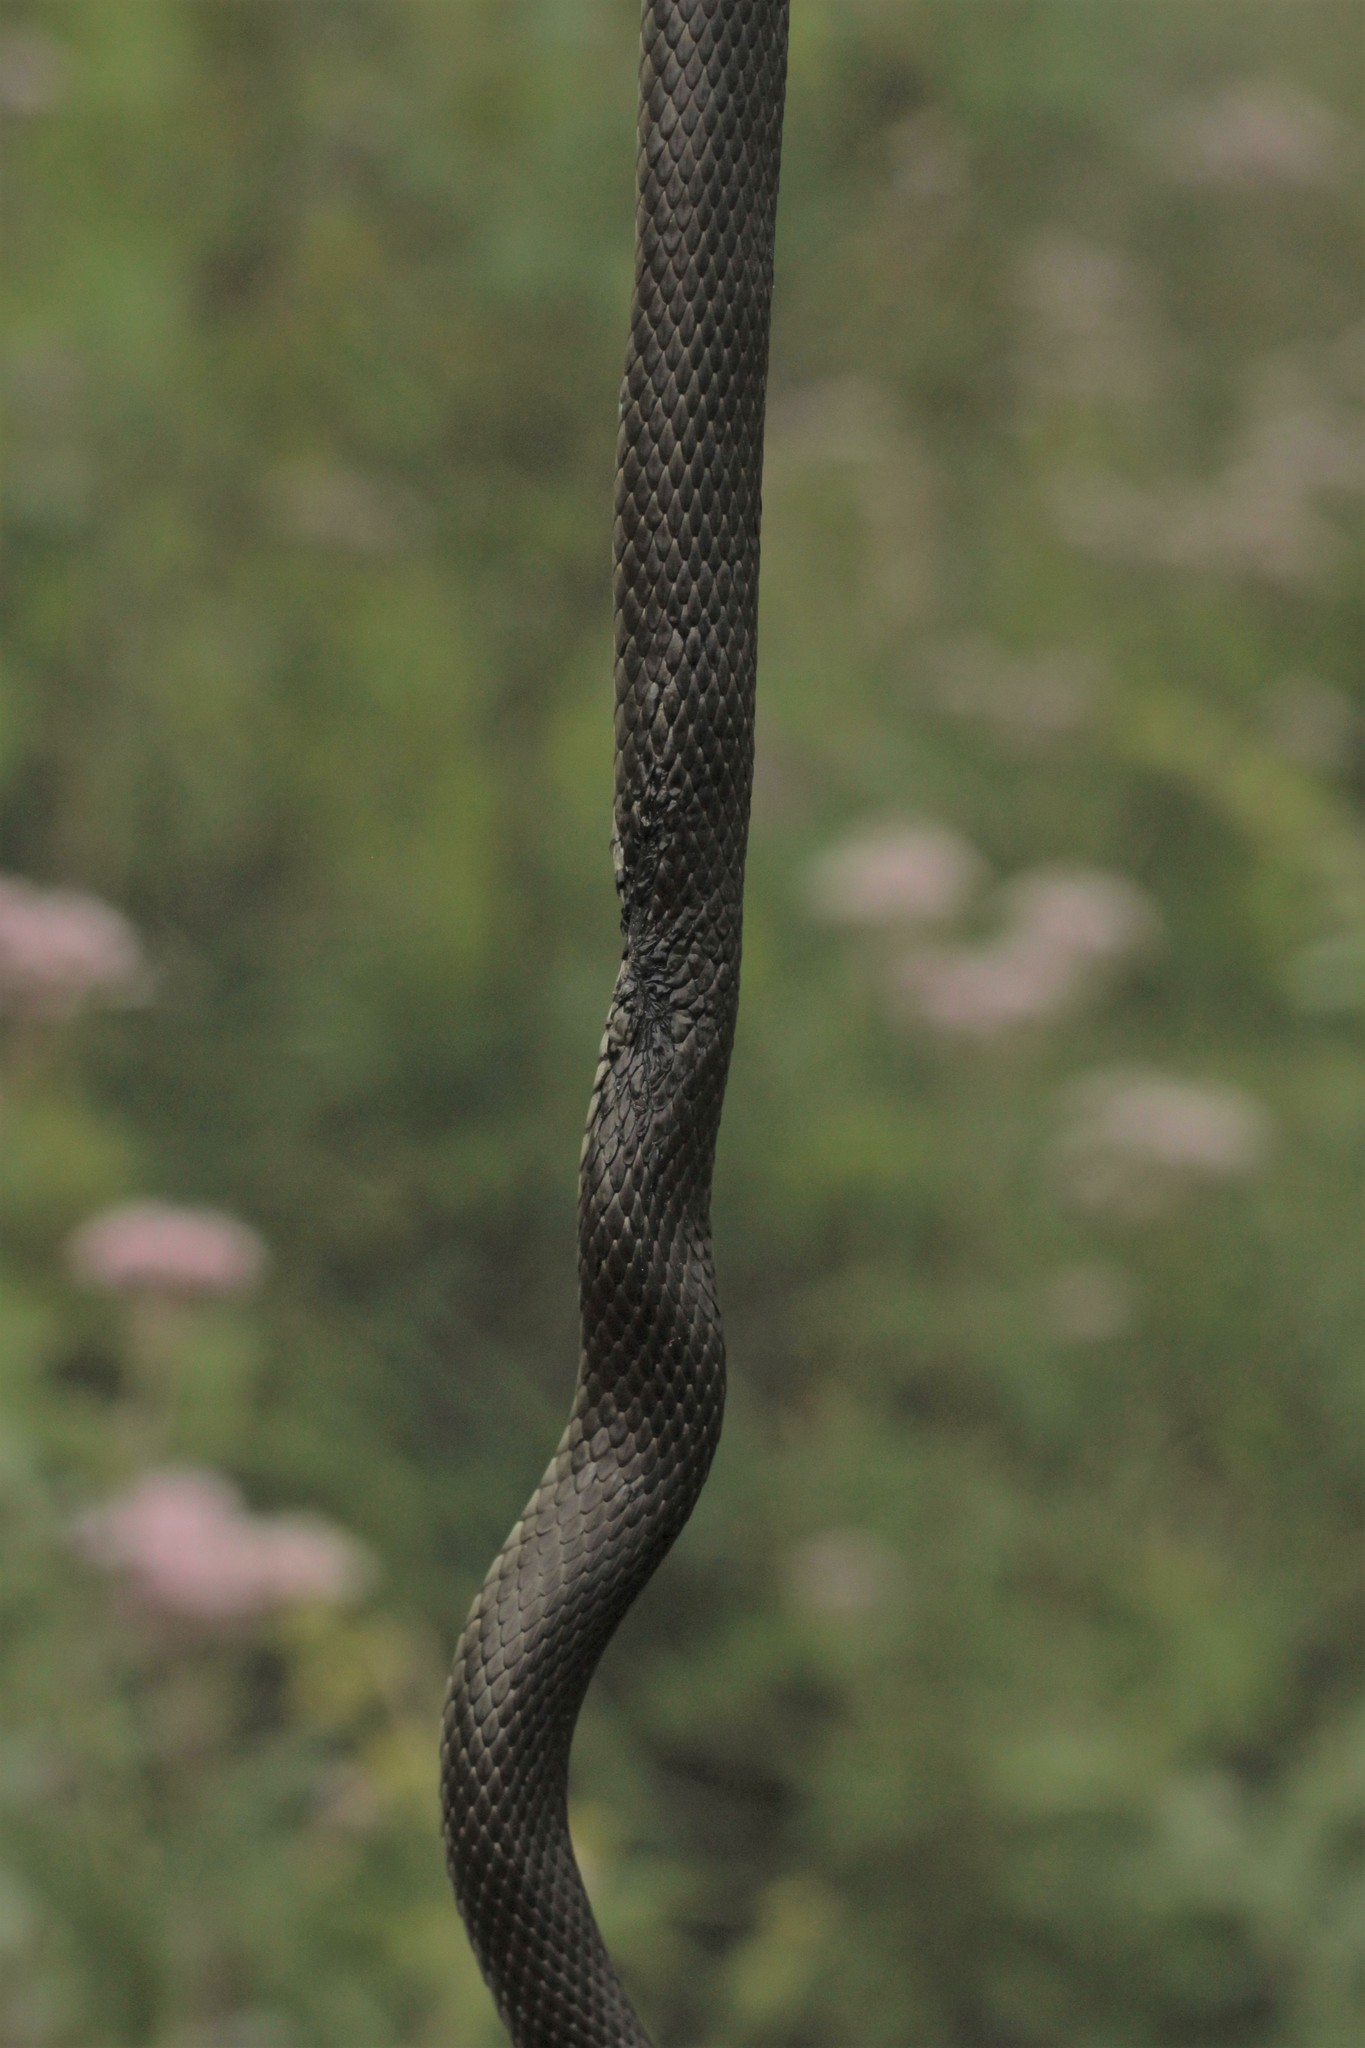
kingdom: Animalia
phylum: Chordata
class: Squamata
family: Colubridae
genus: Natrix
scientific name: Natrix natrix
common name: Grass snake
